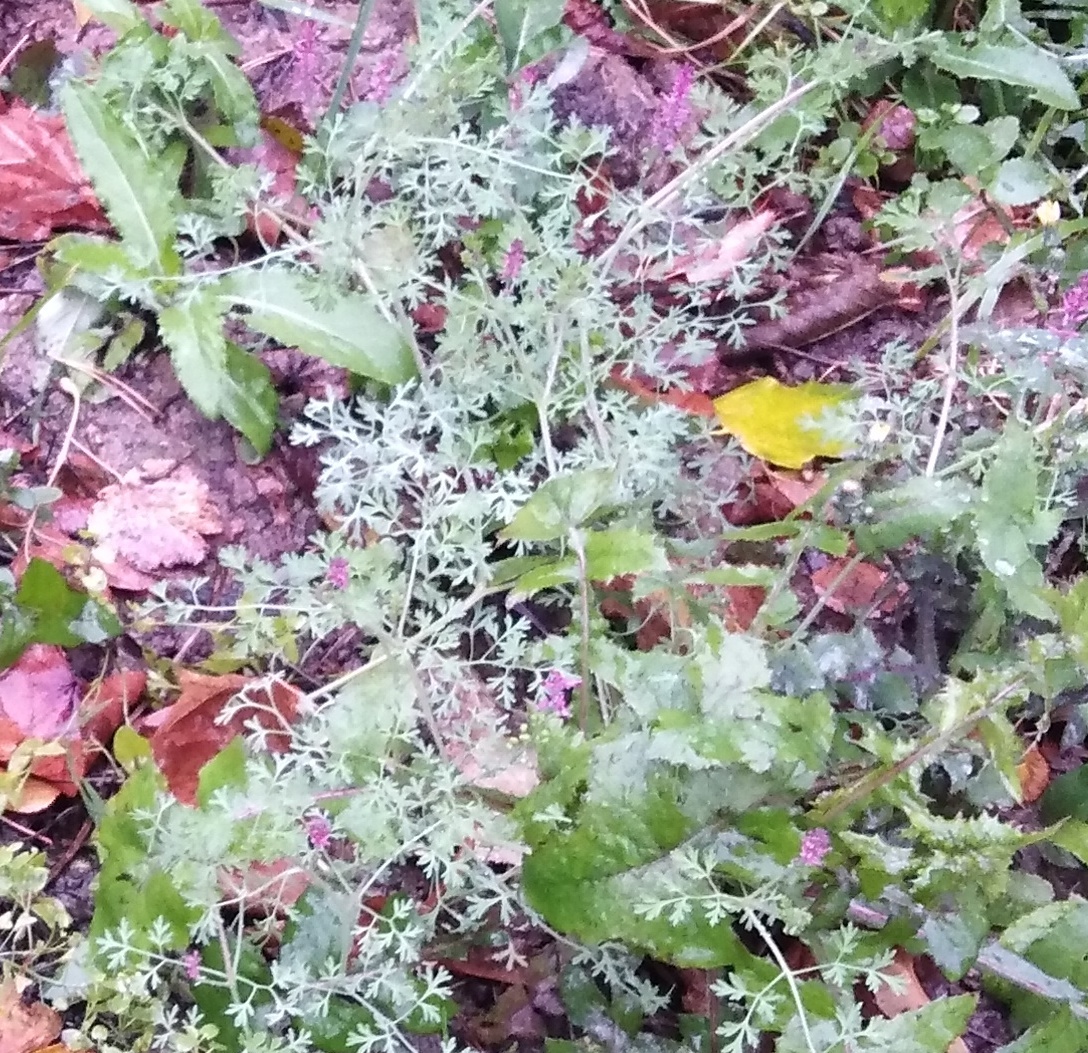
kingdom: Plantae
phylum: Tracheophyta
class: Magnoliopsida
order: Ranunculales
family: Papaveraceae
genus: Fumaria
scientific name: Fumaria officinalis
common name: Common fumitory
